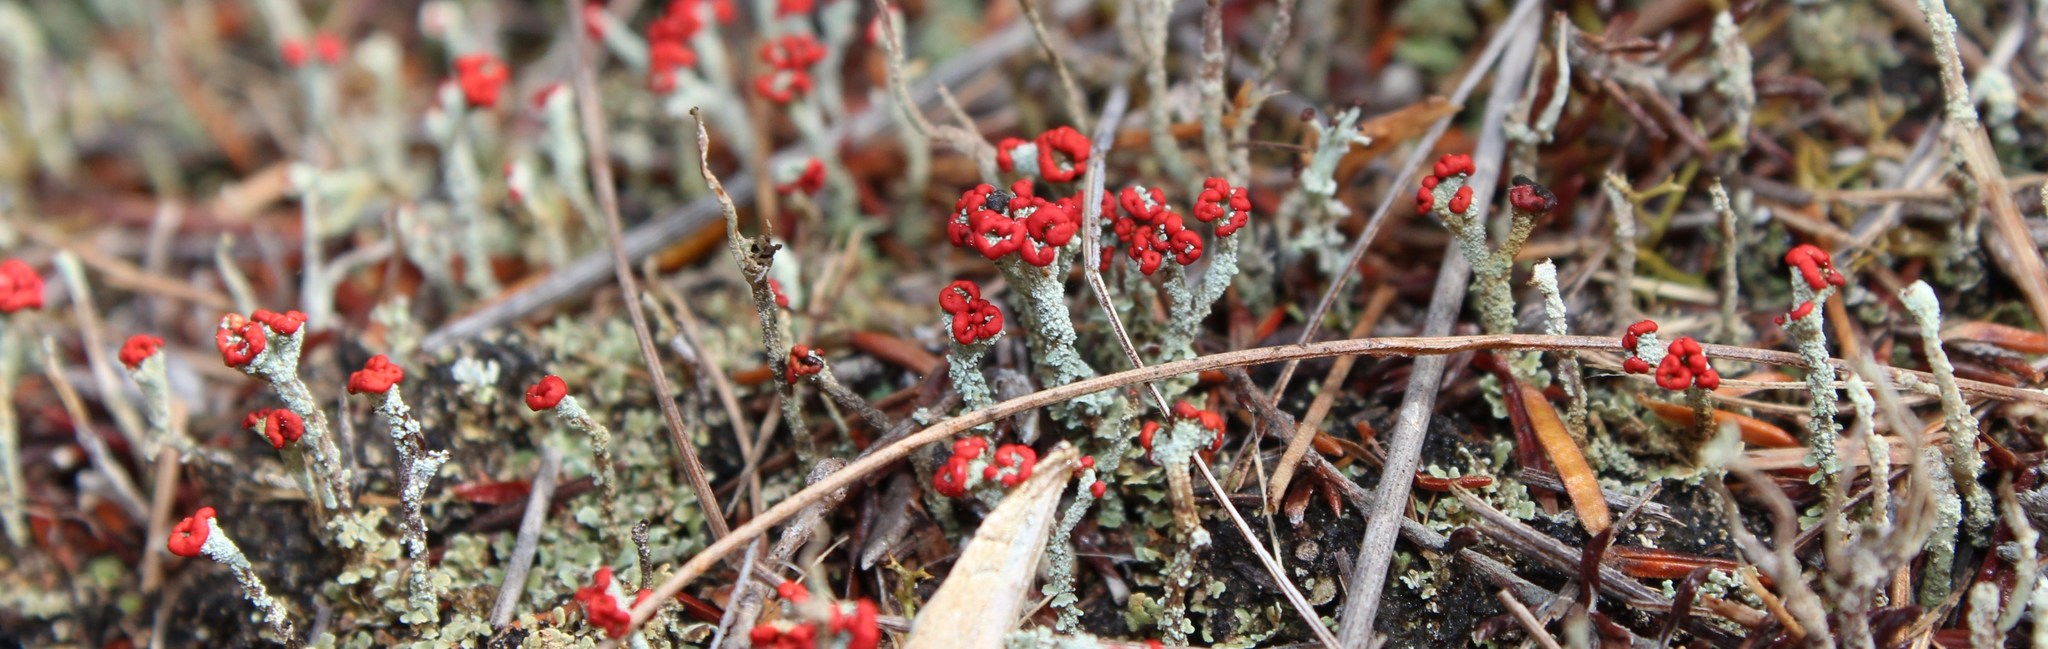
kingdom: Fungi
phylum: Ascomycota
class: Lecanoromycetes
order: Lecanorales
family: Cladoniaceae
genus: Cladonia
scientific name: Cladonia didyma
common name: Southern soldiers
